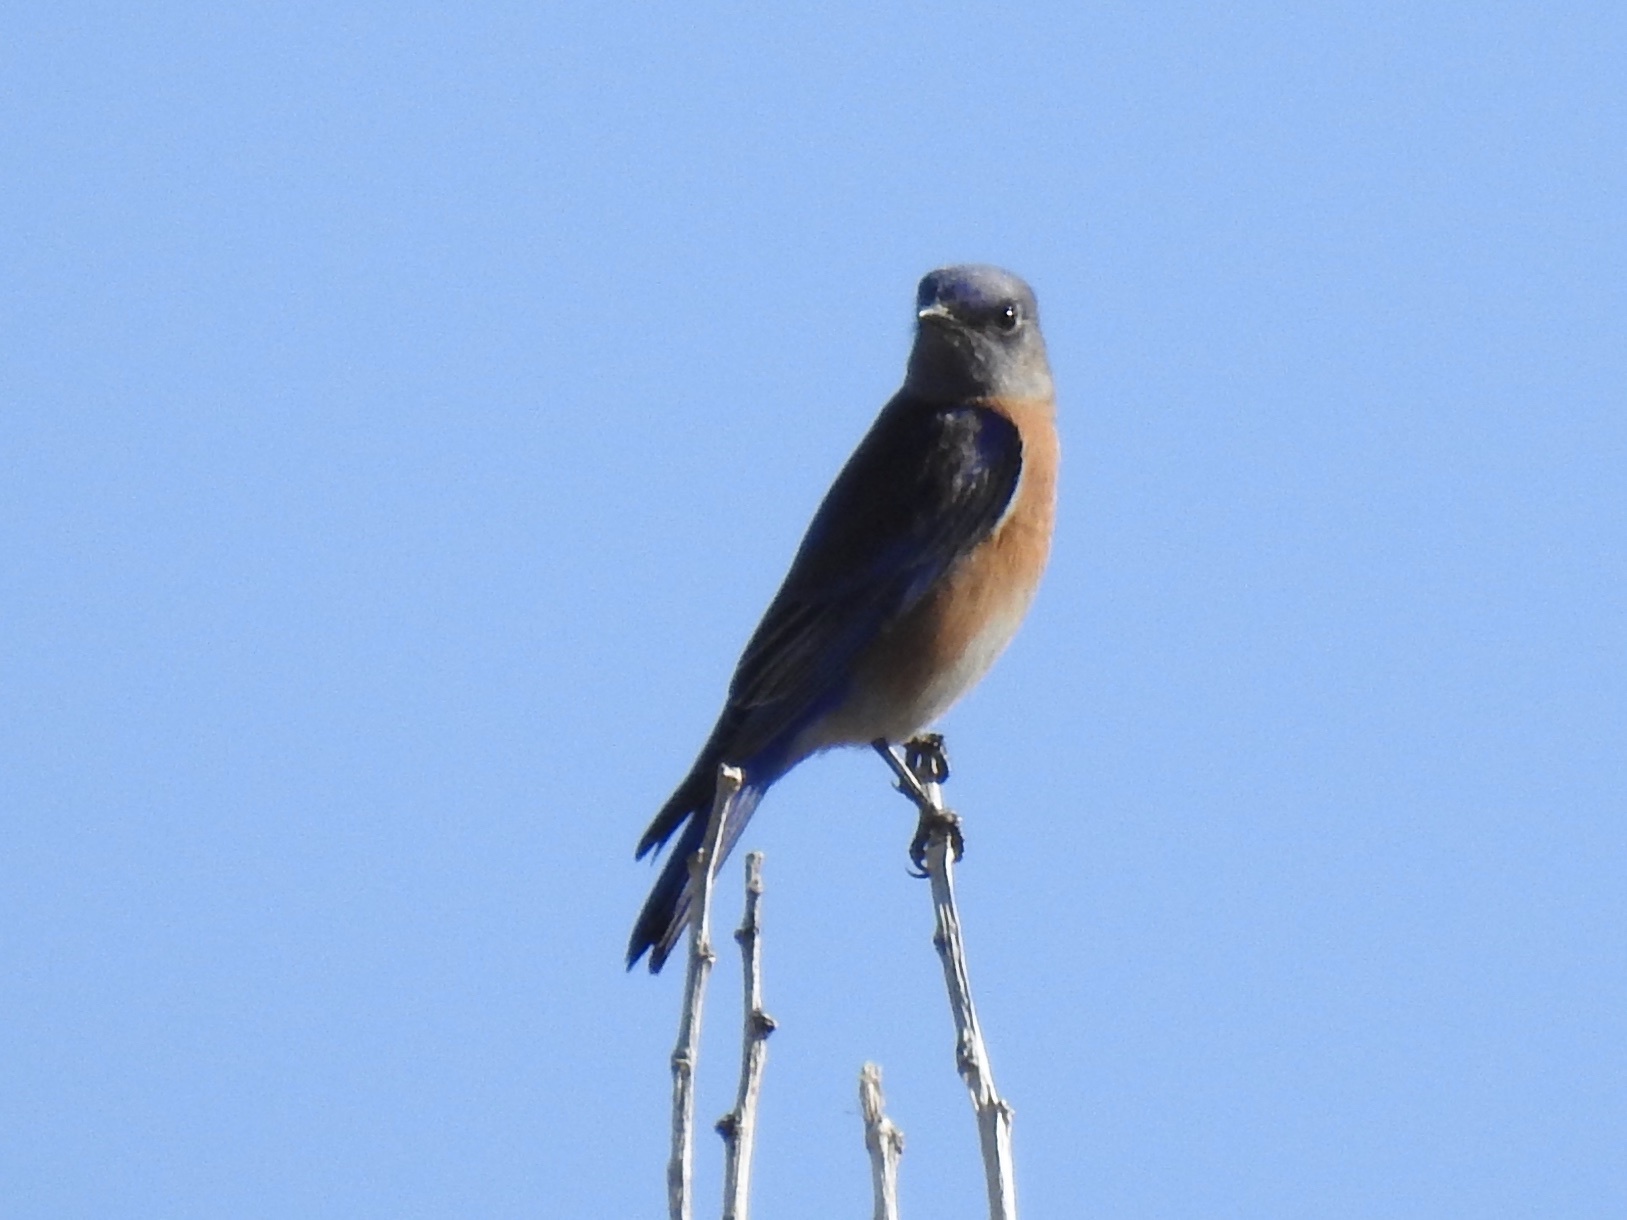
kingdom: Animalia
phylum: Chordata
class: Aves
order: Passeriformes
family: Turdidae
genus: Sialia
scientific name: Sialia mexicana
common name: Western bluebird
